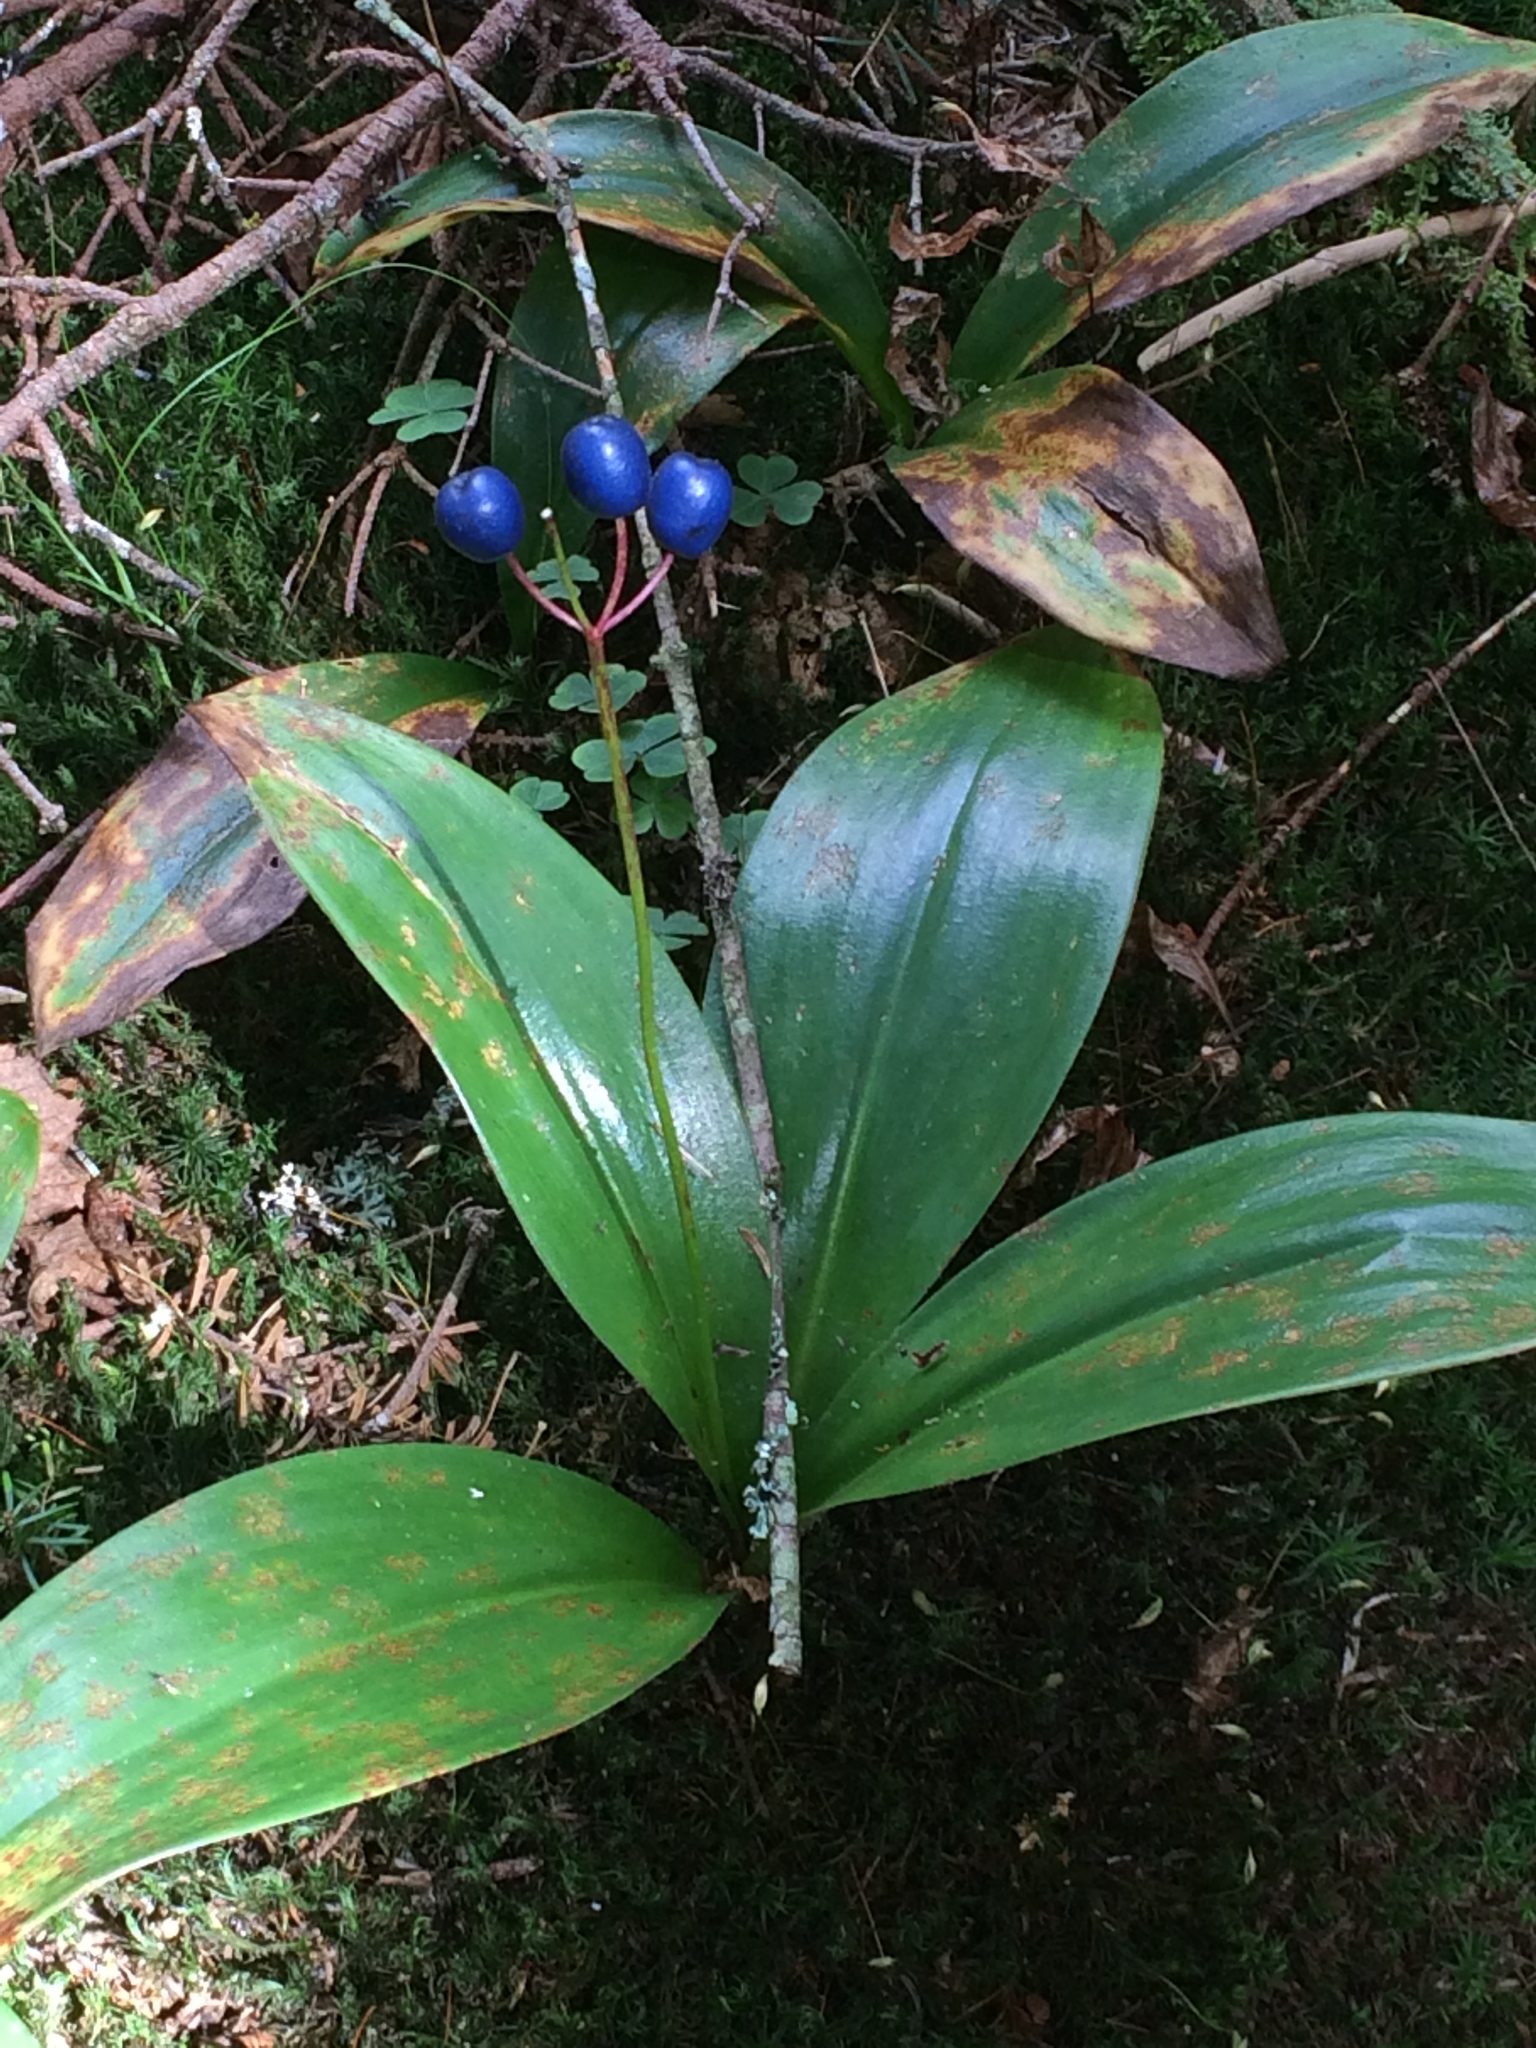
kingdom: Plantae
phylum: Tracheophyta
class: Liliopsida
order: Liliales
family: Liliaceae
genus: Clintonia
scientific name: Clintonia borealis
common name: Yellow clintonia
